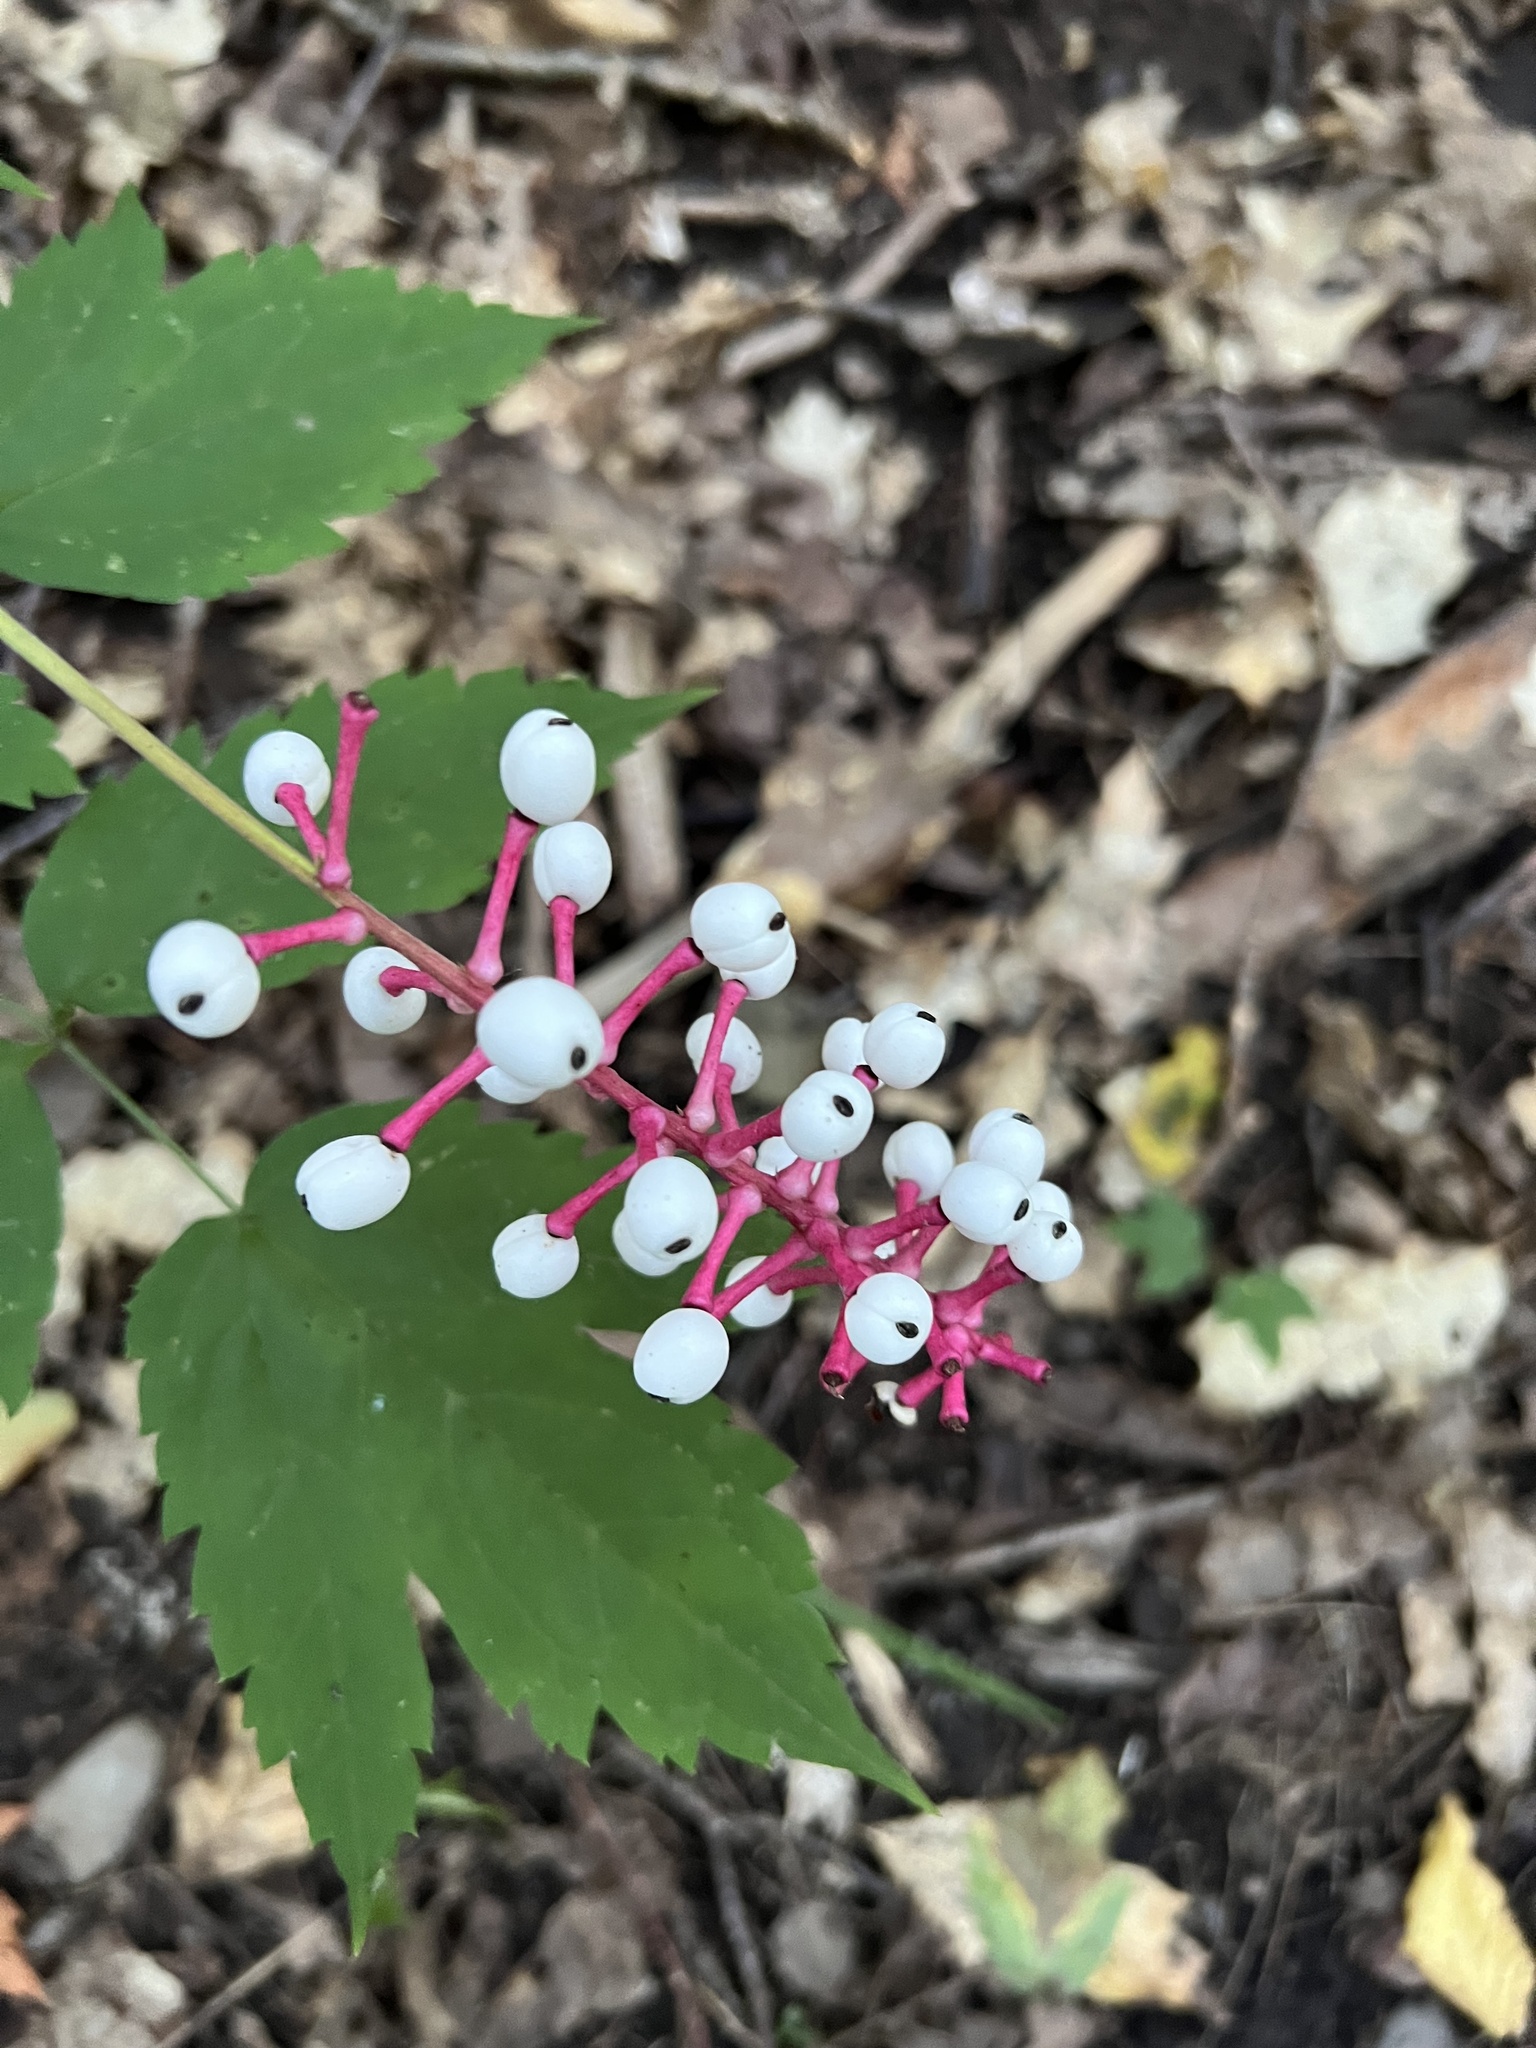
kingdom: Plantae
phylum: Tracheophyta
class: Magnoliopsida
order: Ranunculales
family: Ranunculaceae
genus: Actaea
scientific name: Actaea pachypoda
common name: Doll's-eyes
